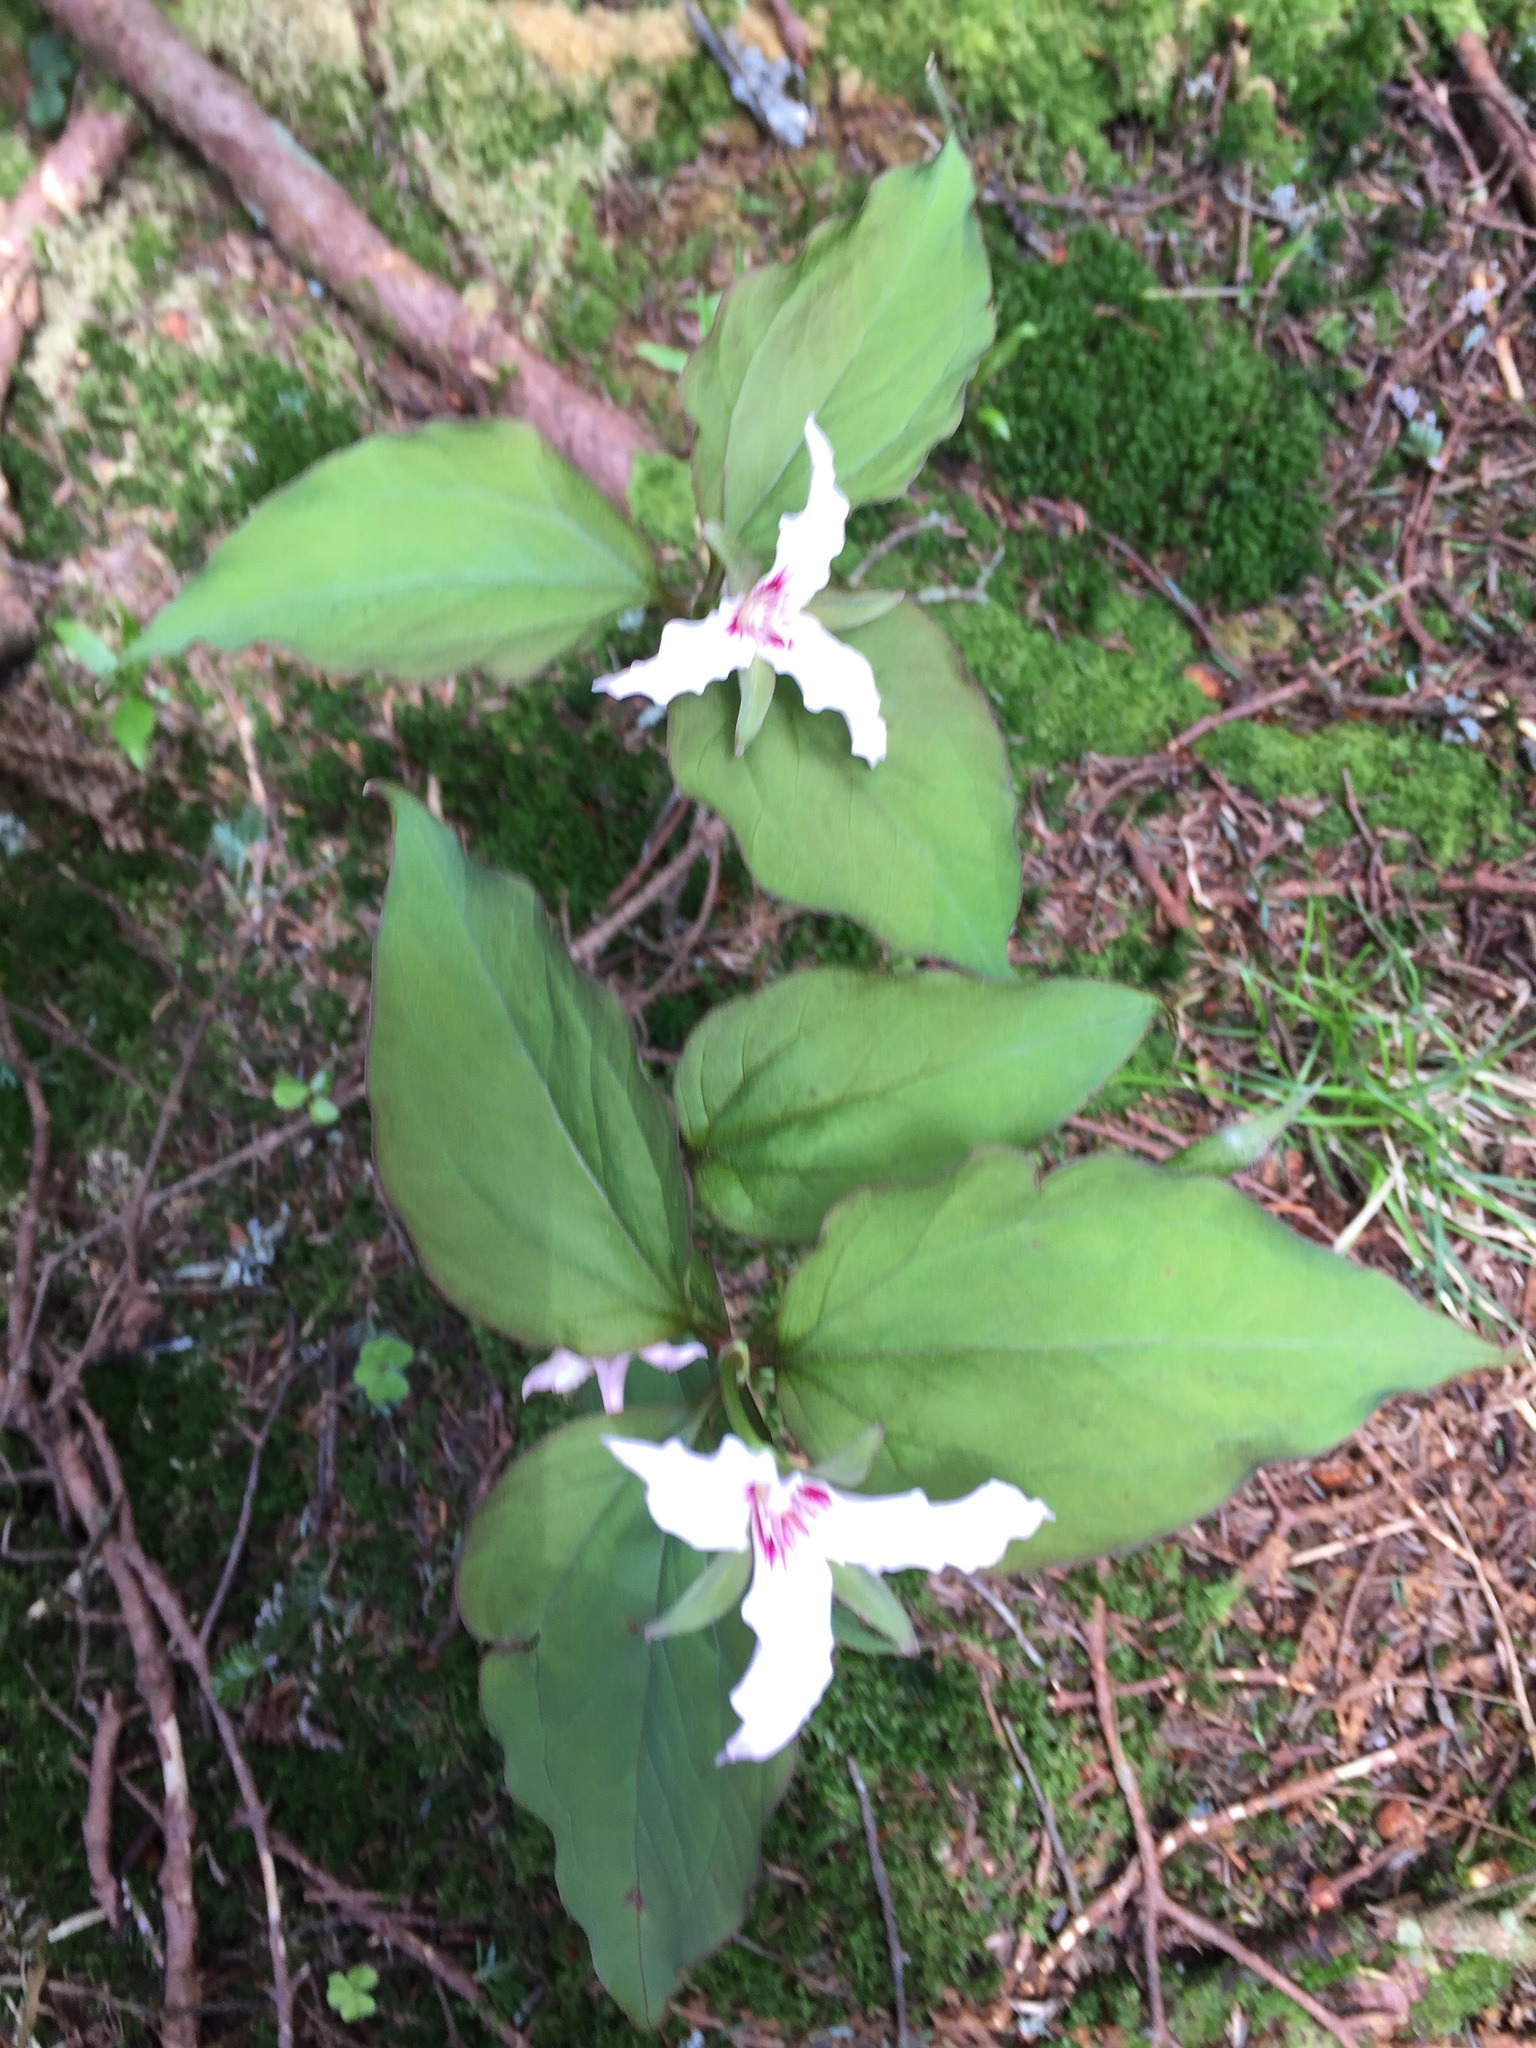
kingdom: Plantae
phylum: Tracheophyta
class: Liliopsida
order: Liliales
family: Melanthiaceae
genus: Trillium
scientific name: Trillium undulatum
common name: Paint trillium
